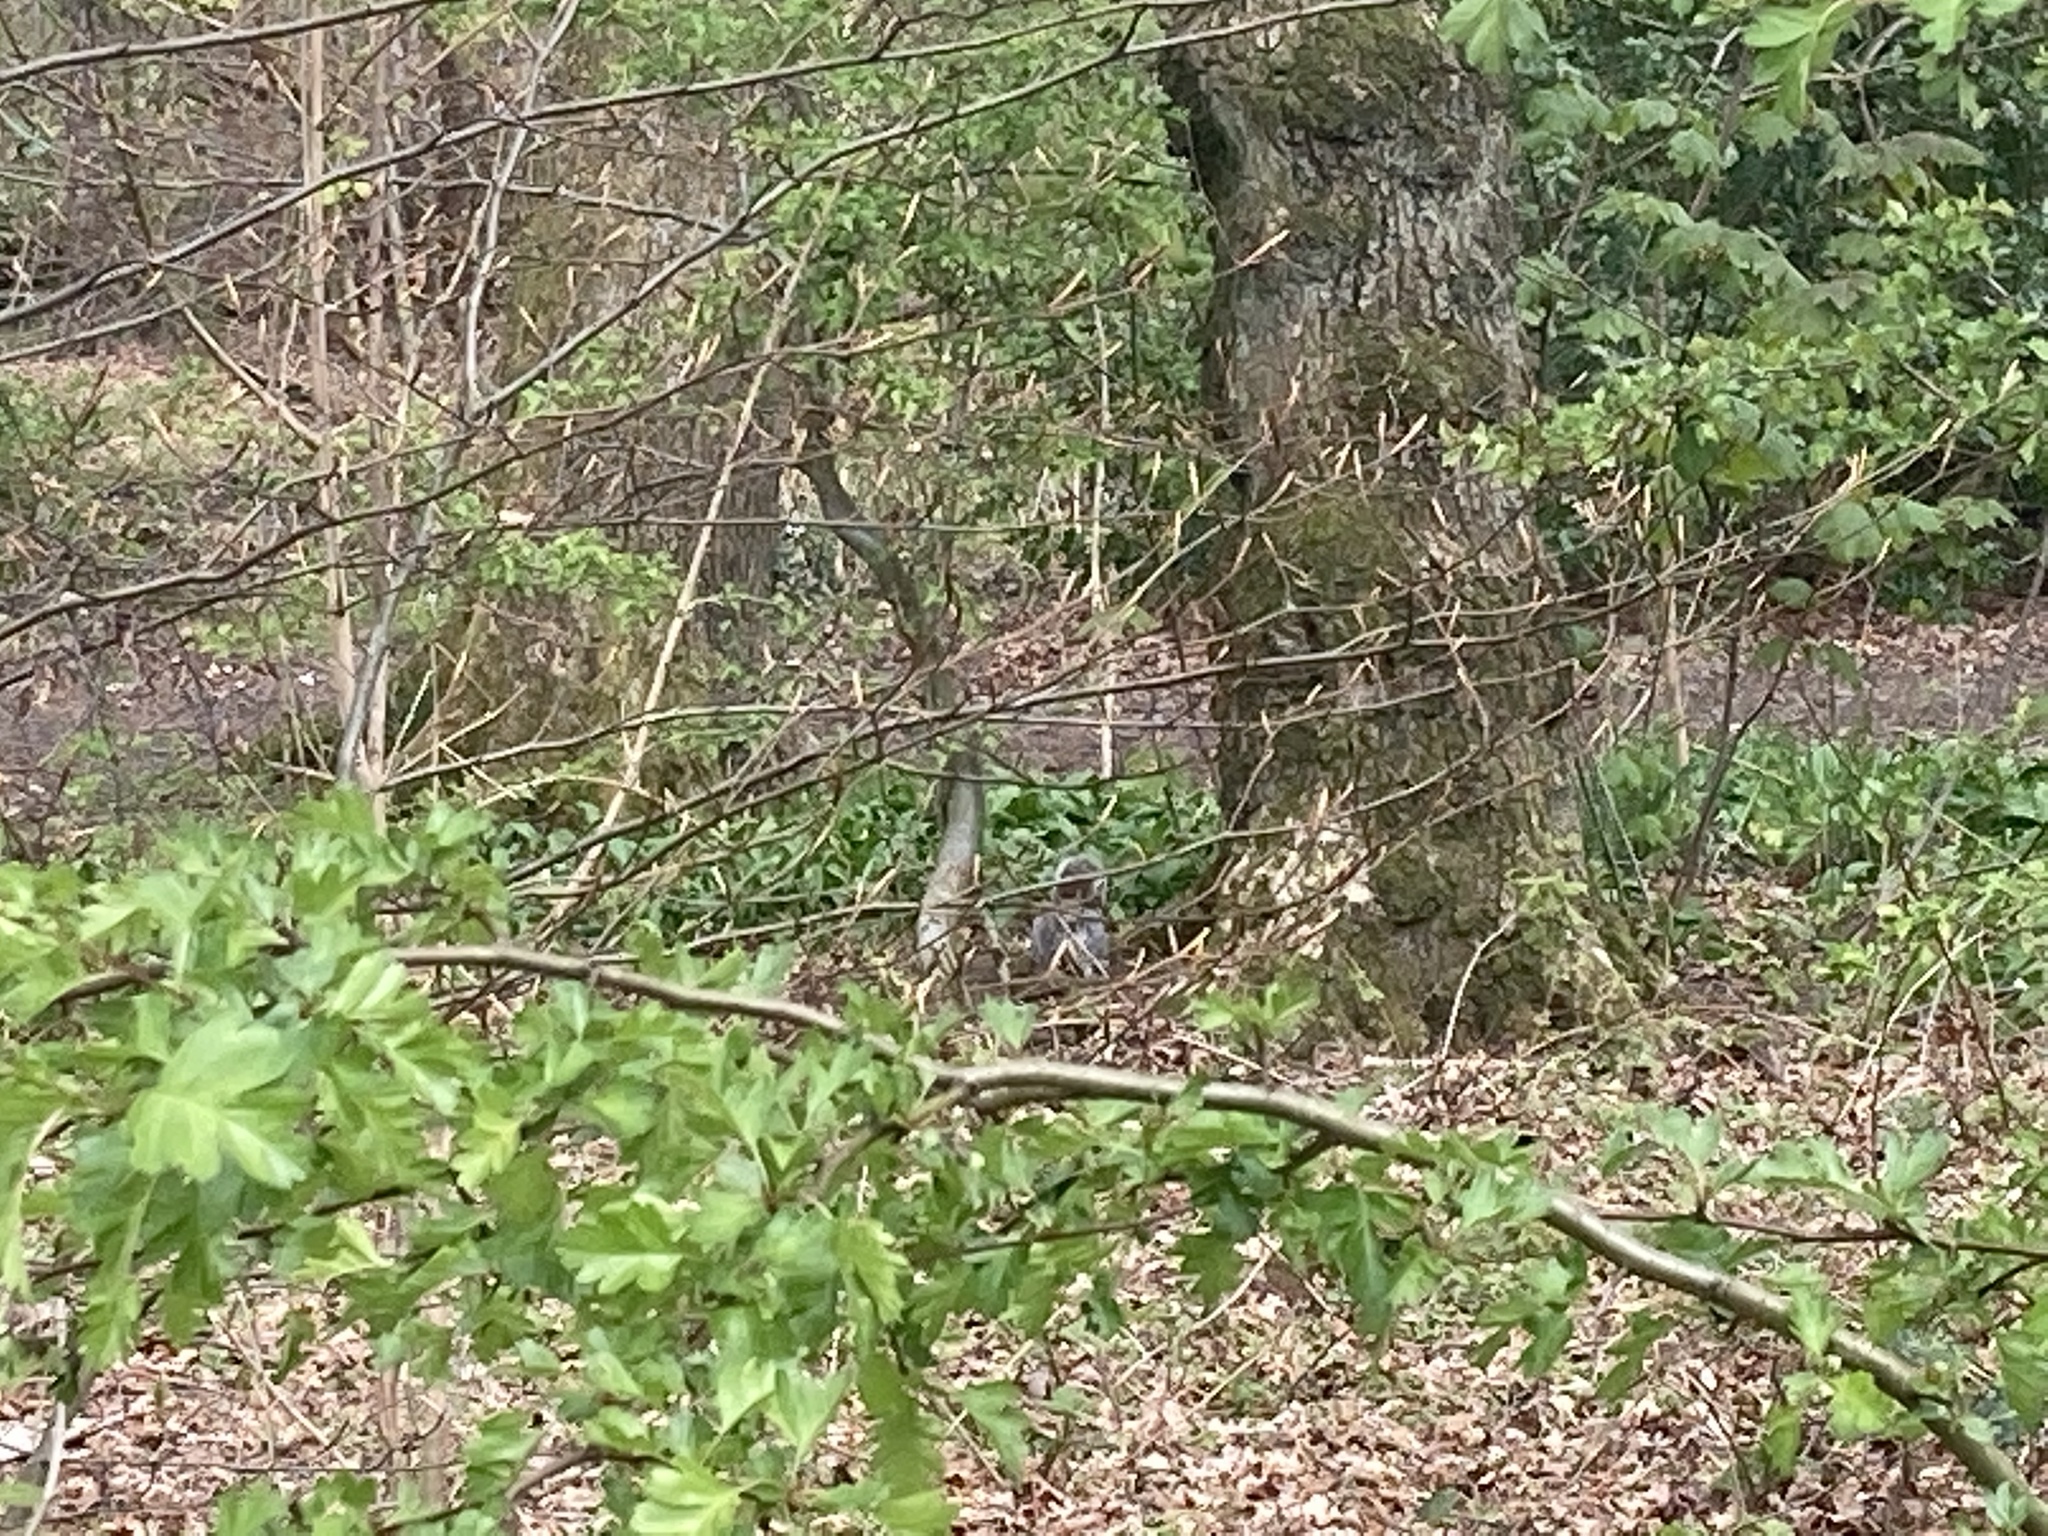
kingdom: Animalia
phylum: Chordata
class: Mammalia
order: Rodentia
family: Sciuridae
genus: Sciurus
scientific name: Sciurus carolinensis
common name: Eastern gray squirrel
